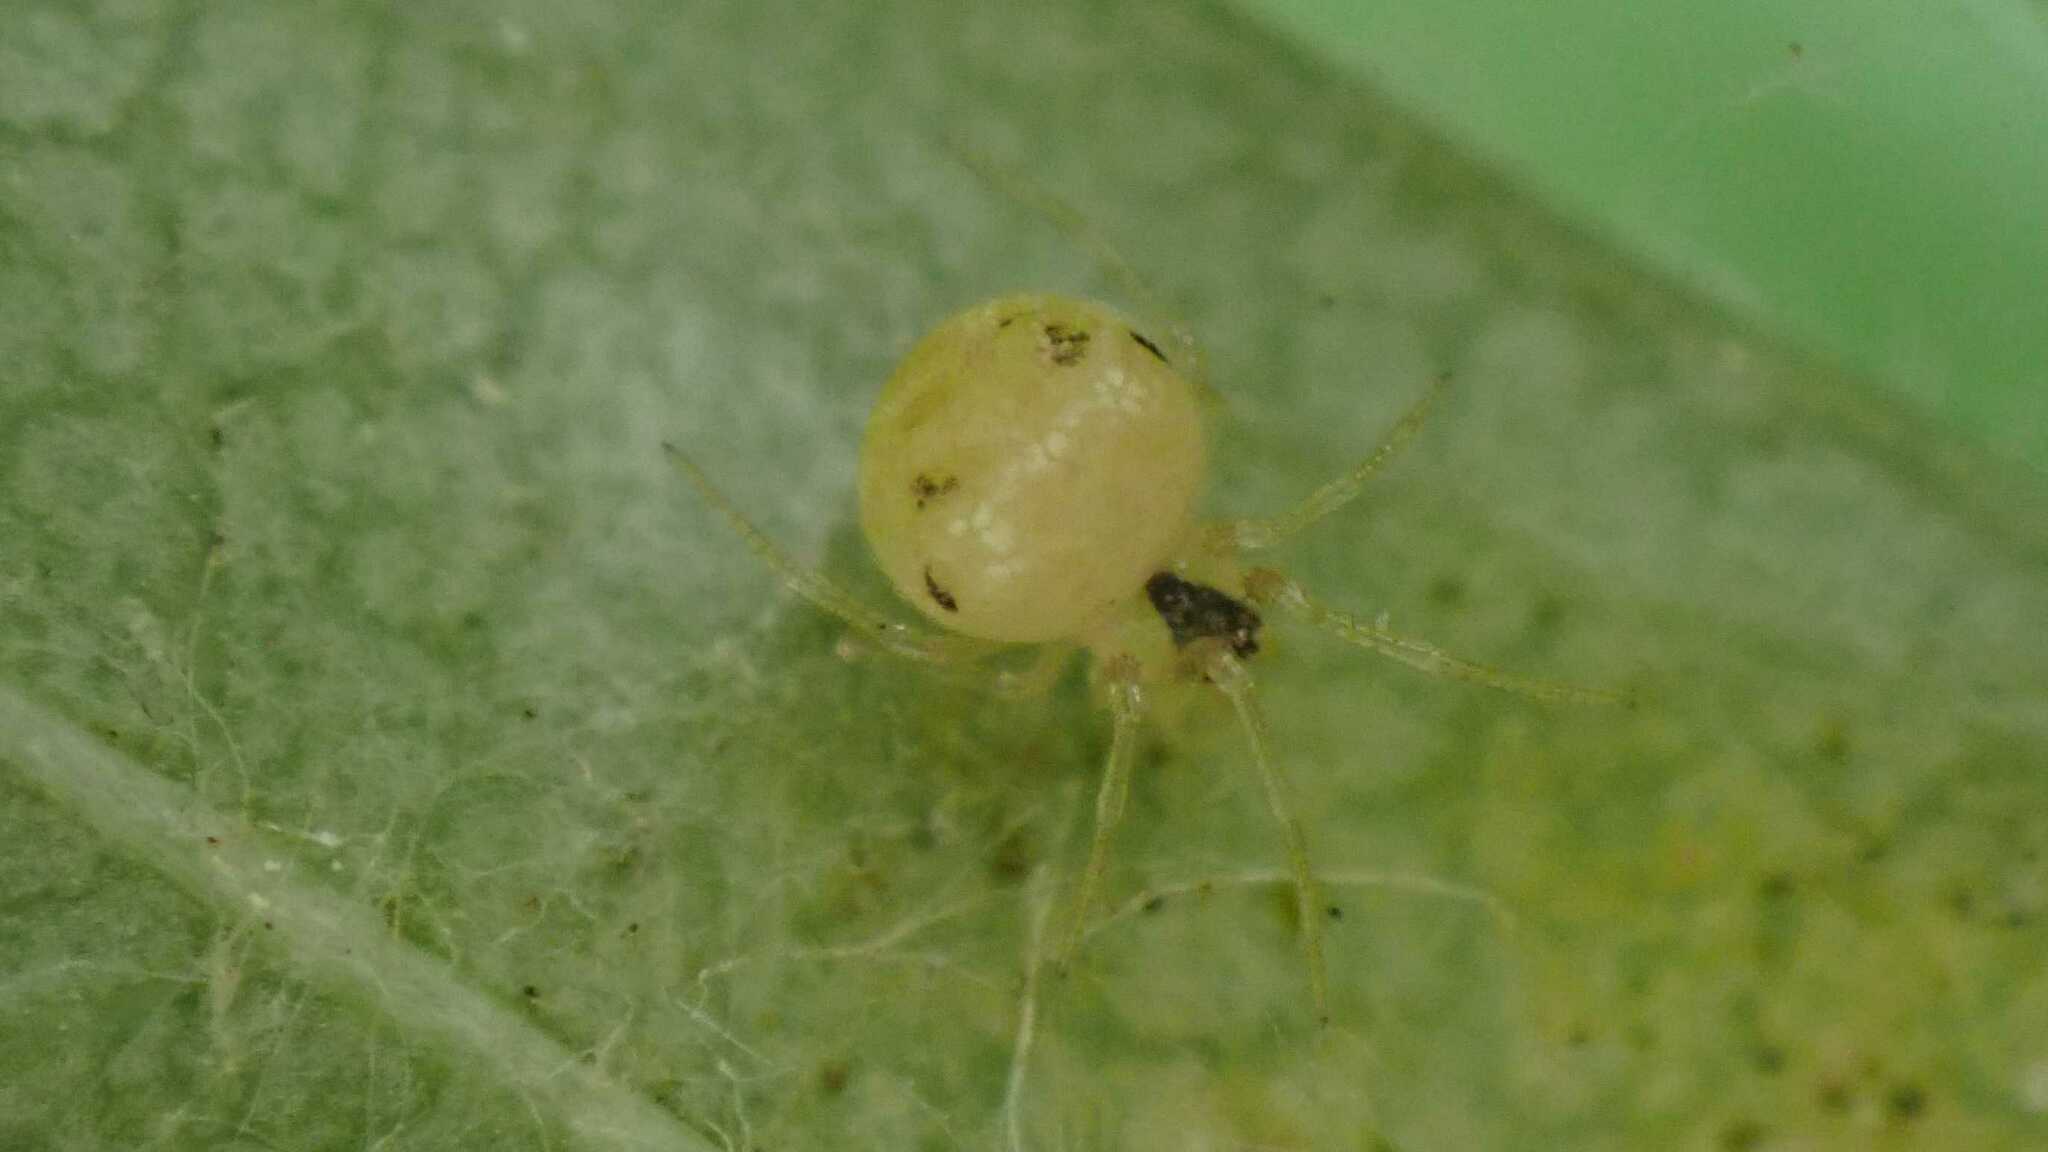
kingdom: Animalia
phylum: Arthropoda
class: Arachnida
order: Araneae
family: Theridiidae
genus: Paidiscura
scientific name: Paidiscura pallens
